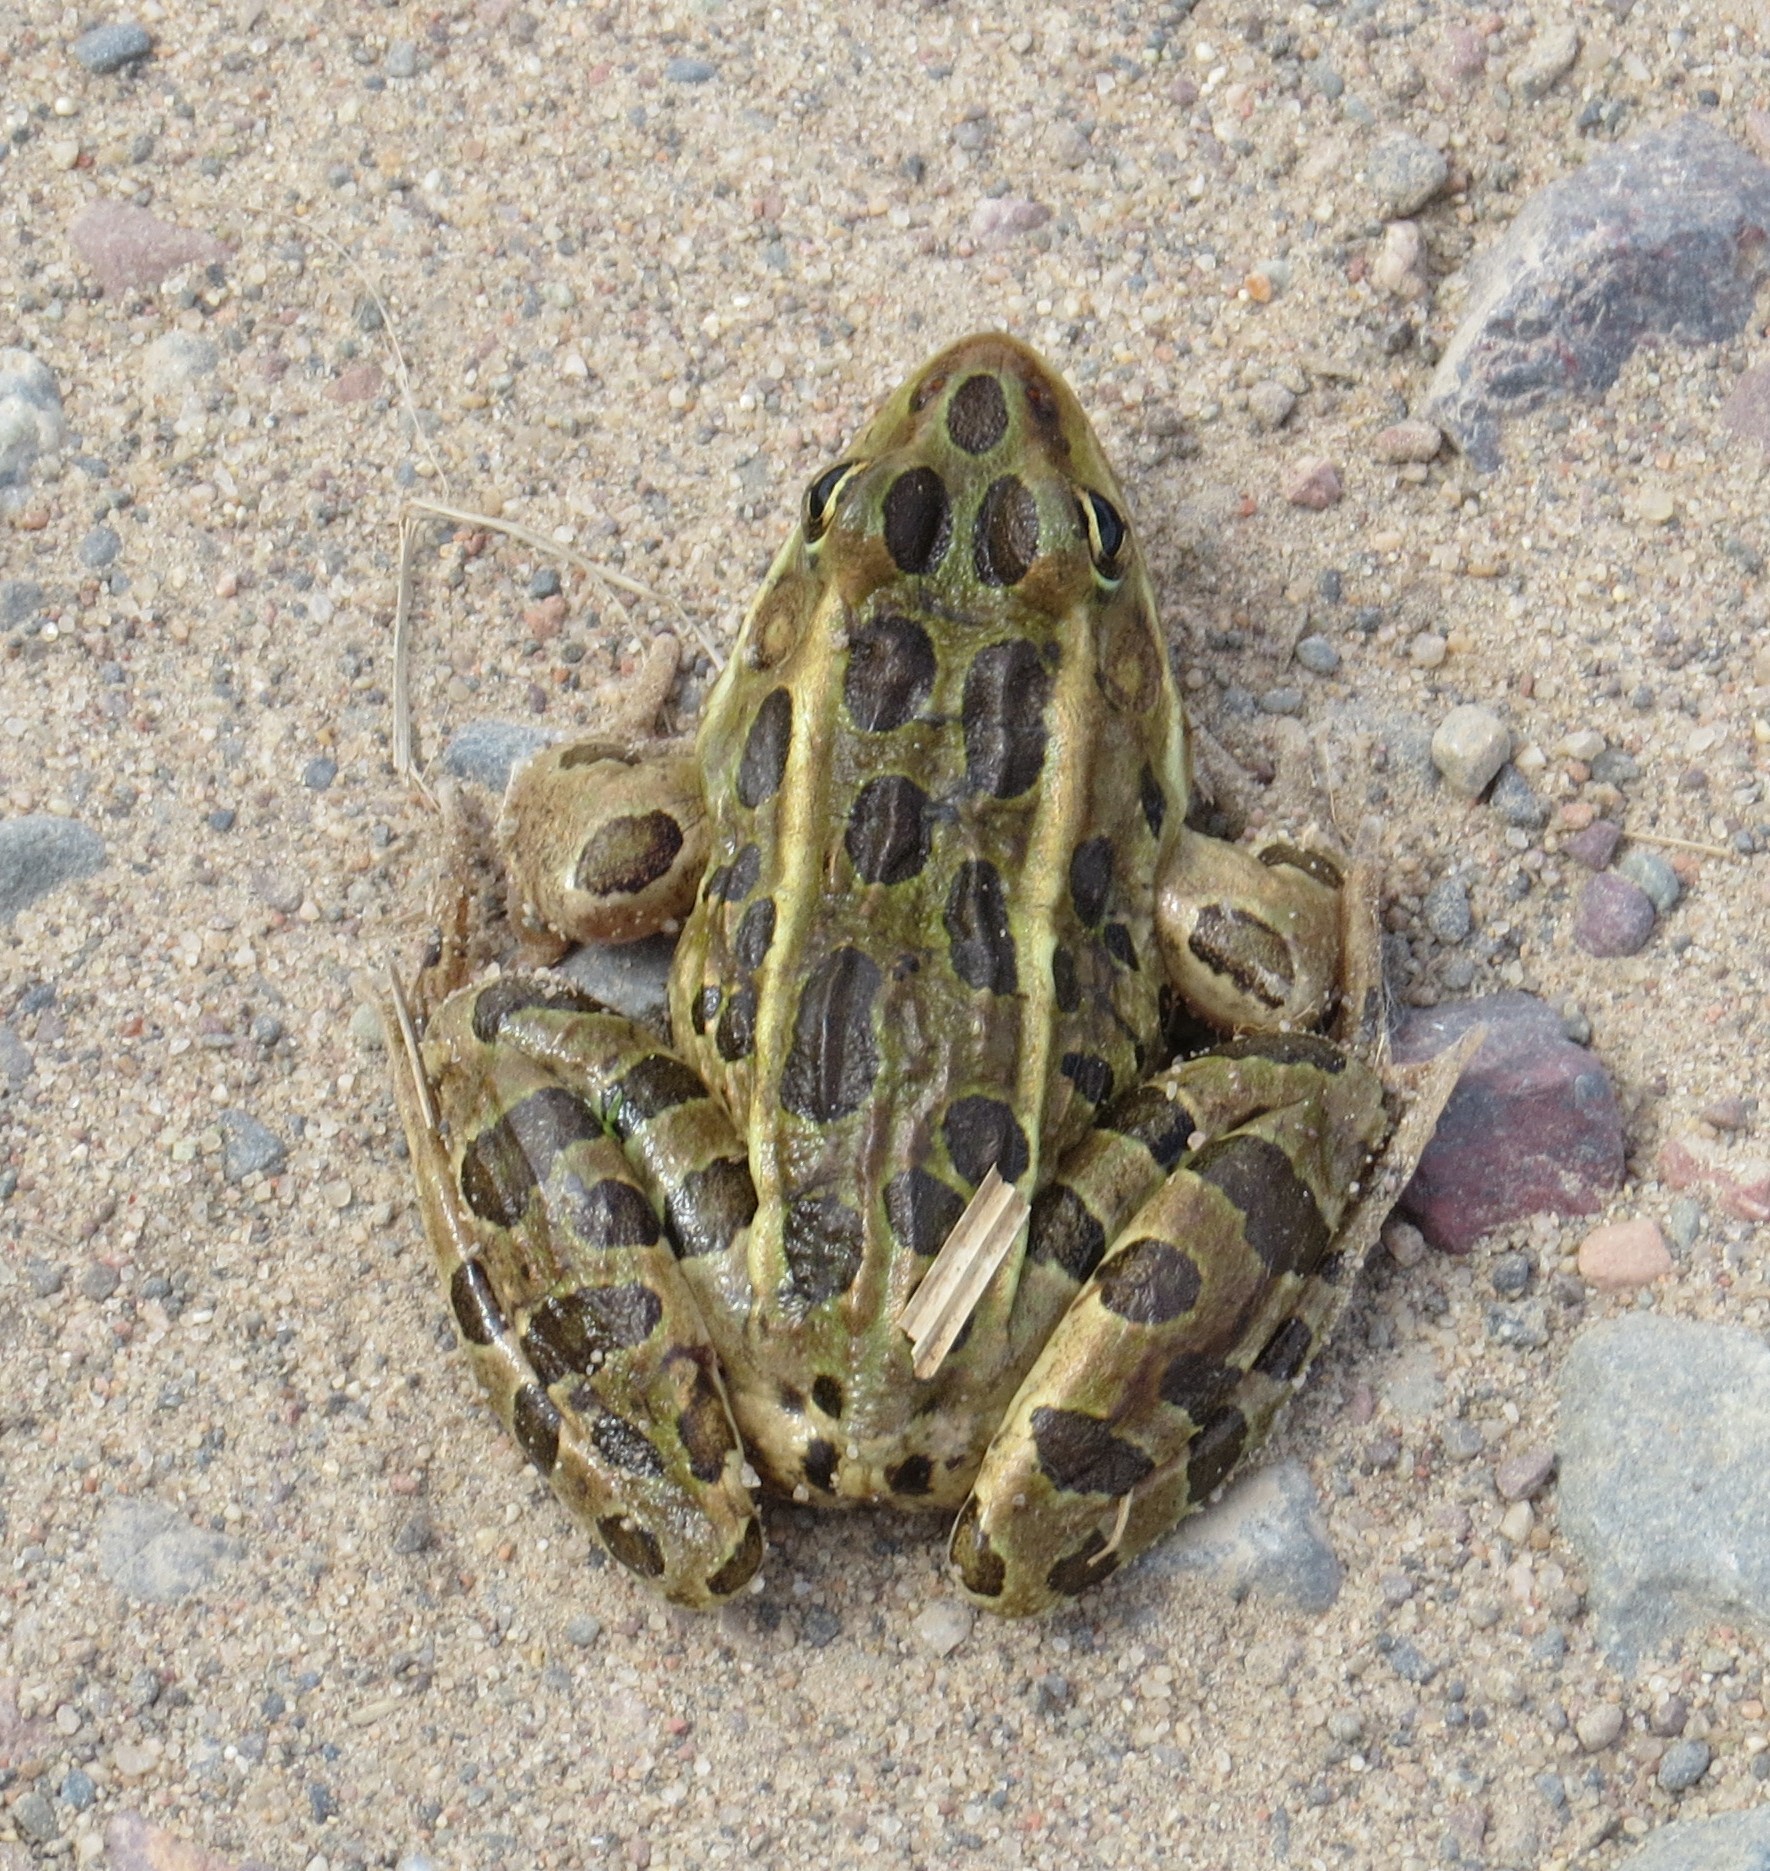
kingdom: Animalia
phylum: Chordata
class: Amphibia
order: Anura
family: Ranidae
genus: Lithobates
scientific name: Lithobates pipiens
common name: Northern leopard frog
